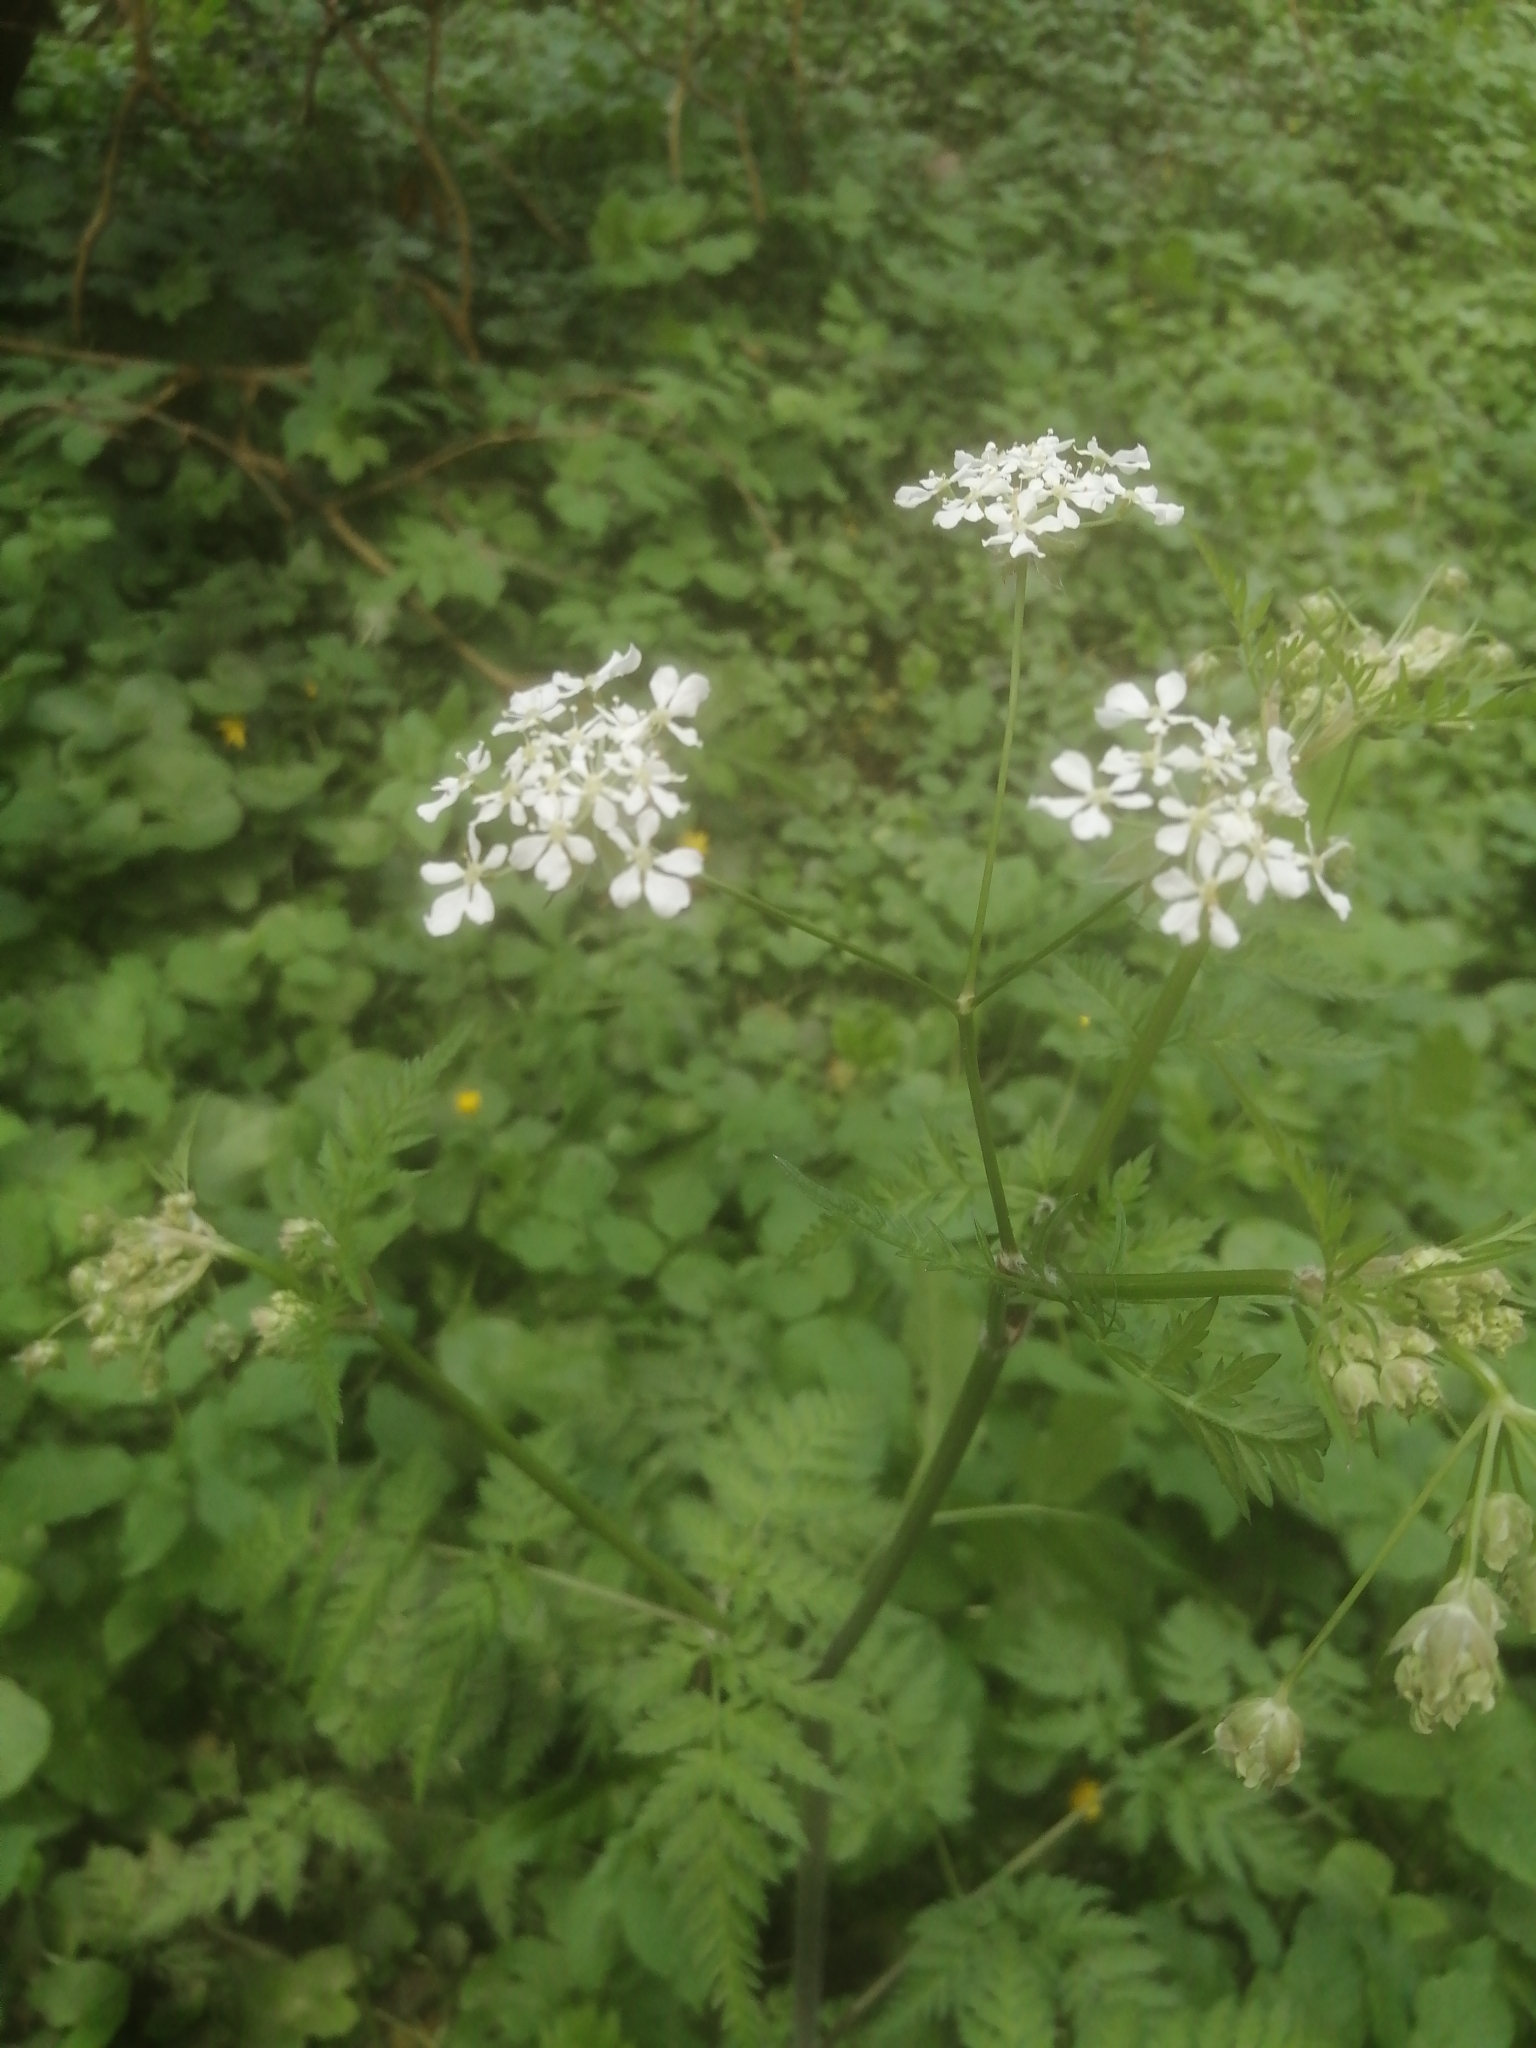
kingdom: Plantae
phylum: Tracheophyta
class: Magnoliopsida
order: Apiales
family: Apiaceae
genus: Anthriscus
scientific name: Anthriscus sylvestris
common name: Cow parsley
